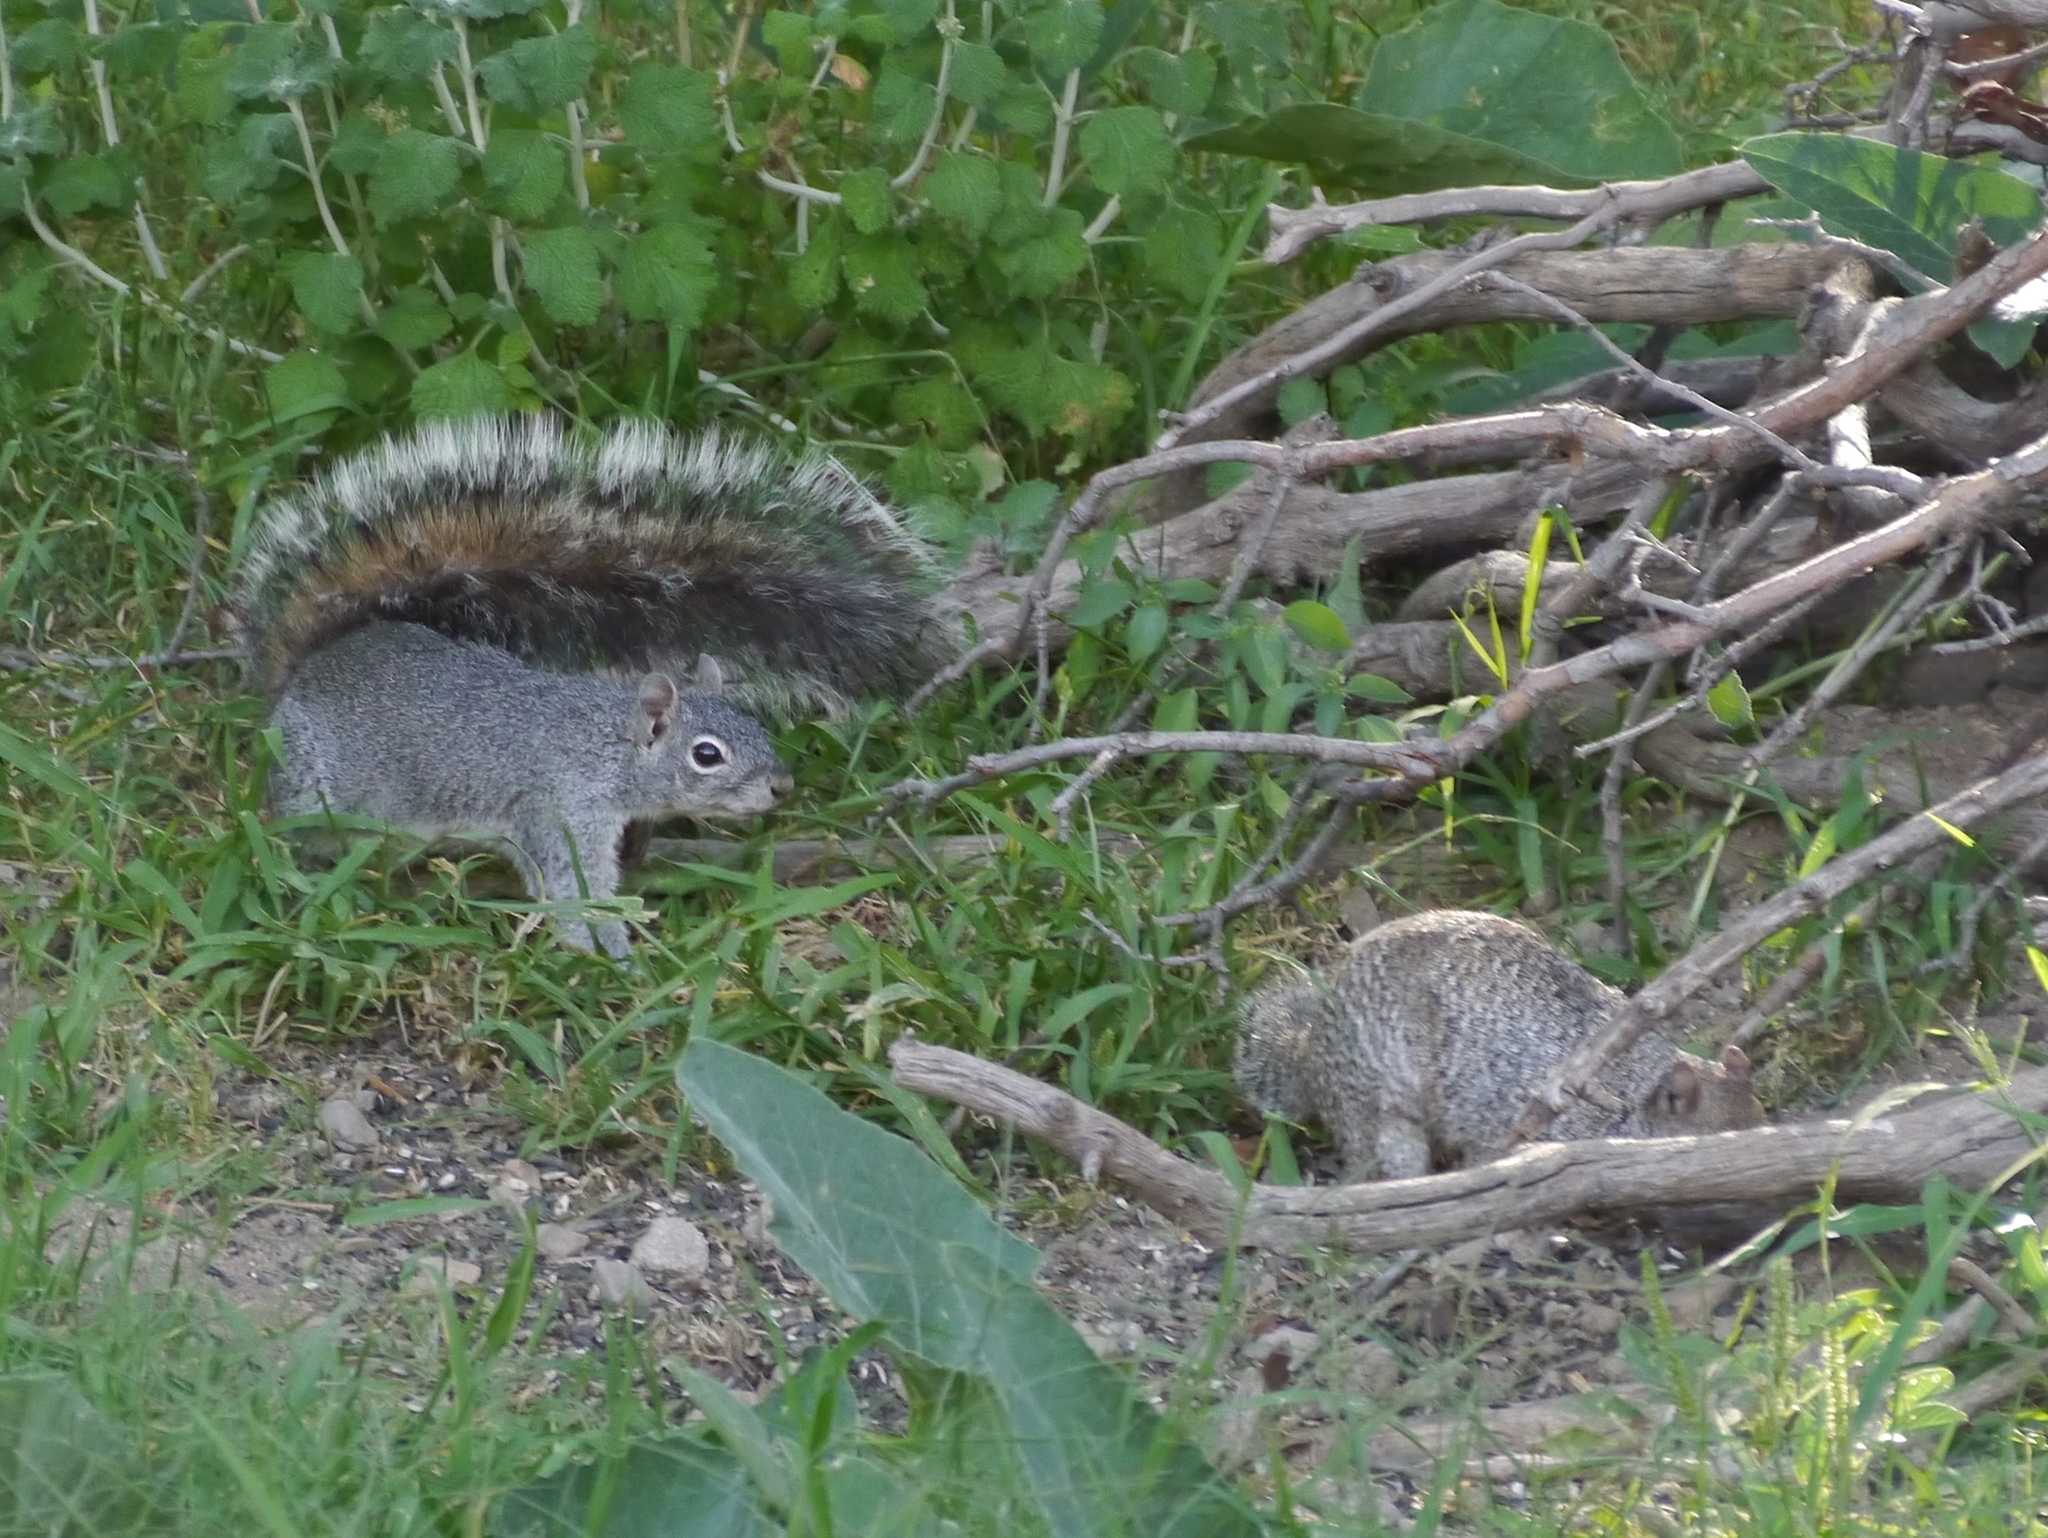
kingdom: Animalia
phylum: Chordata
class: Mammalia
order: Rodentia
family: Sciuridae
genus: Sciurus
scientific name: Sciurus arizonensis
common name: Arizona gray squirrel
